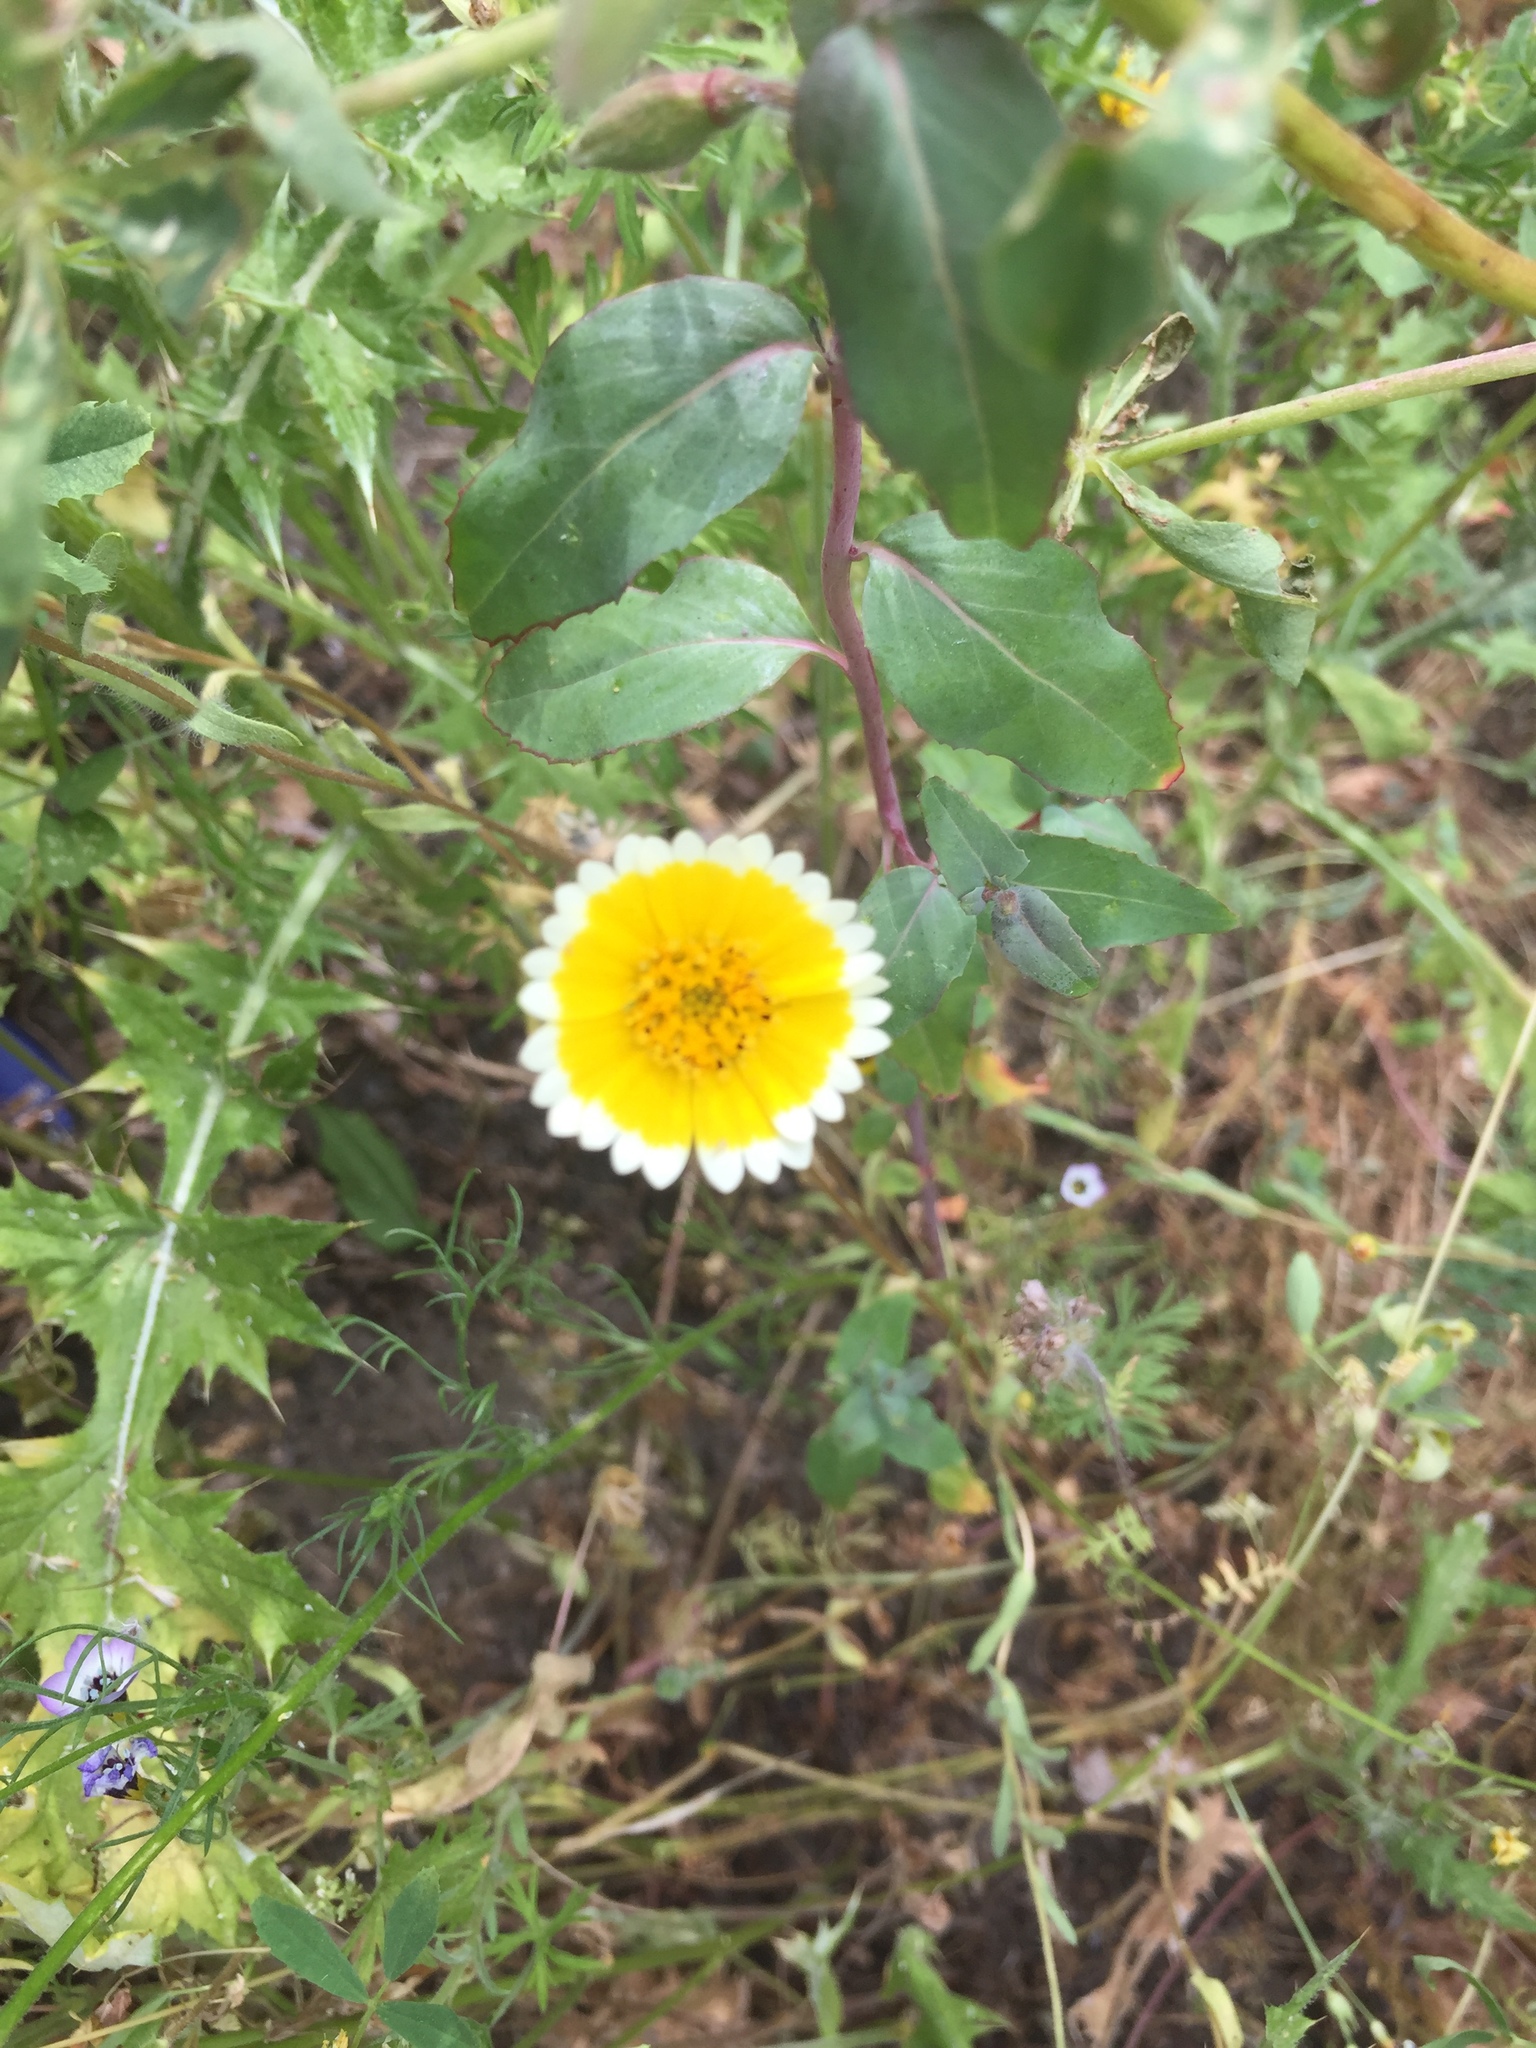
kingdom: Plantae
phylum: Tracheophyta
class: Magnoliopsida
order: Asterales
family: Asteraceae
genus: Layia
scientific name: Layia platyglossa
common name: Tidy-tips
